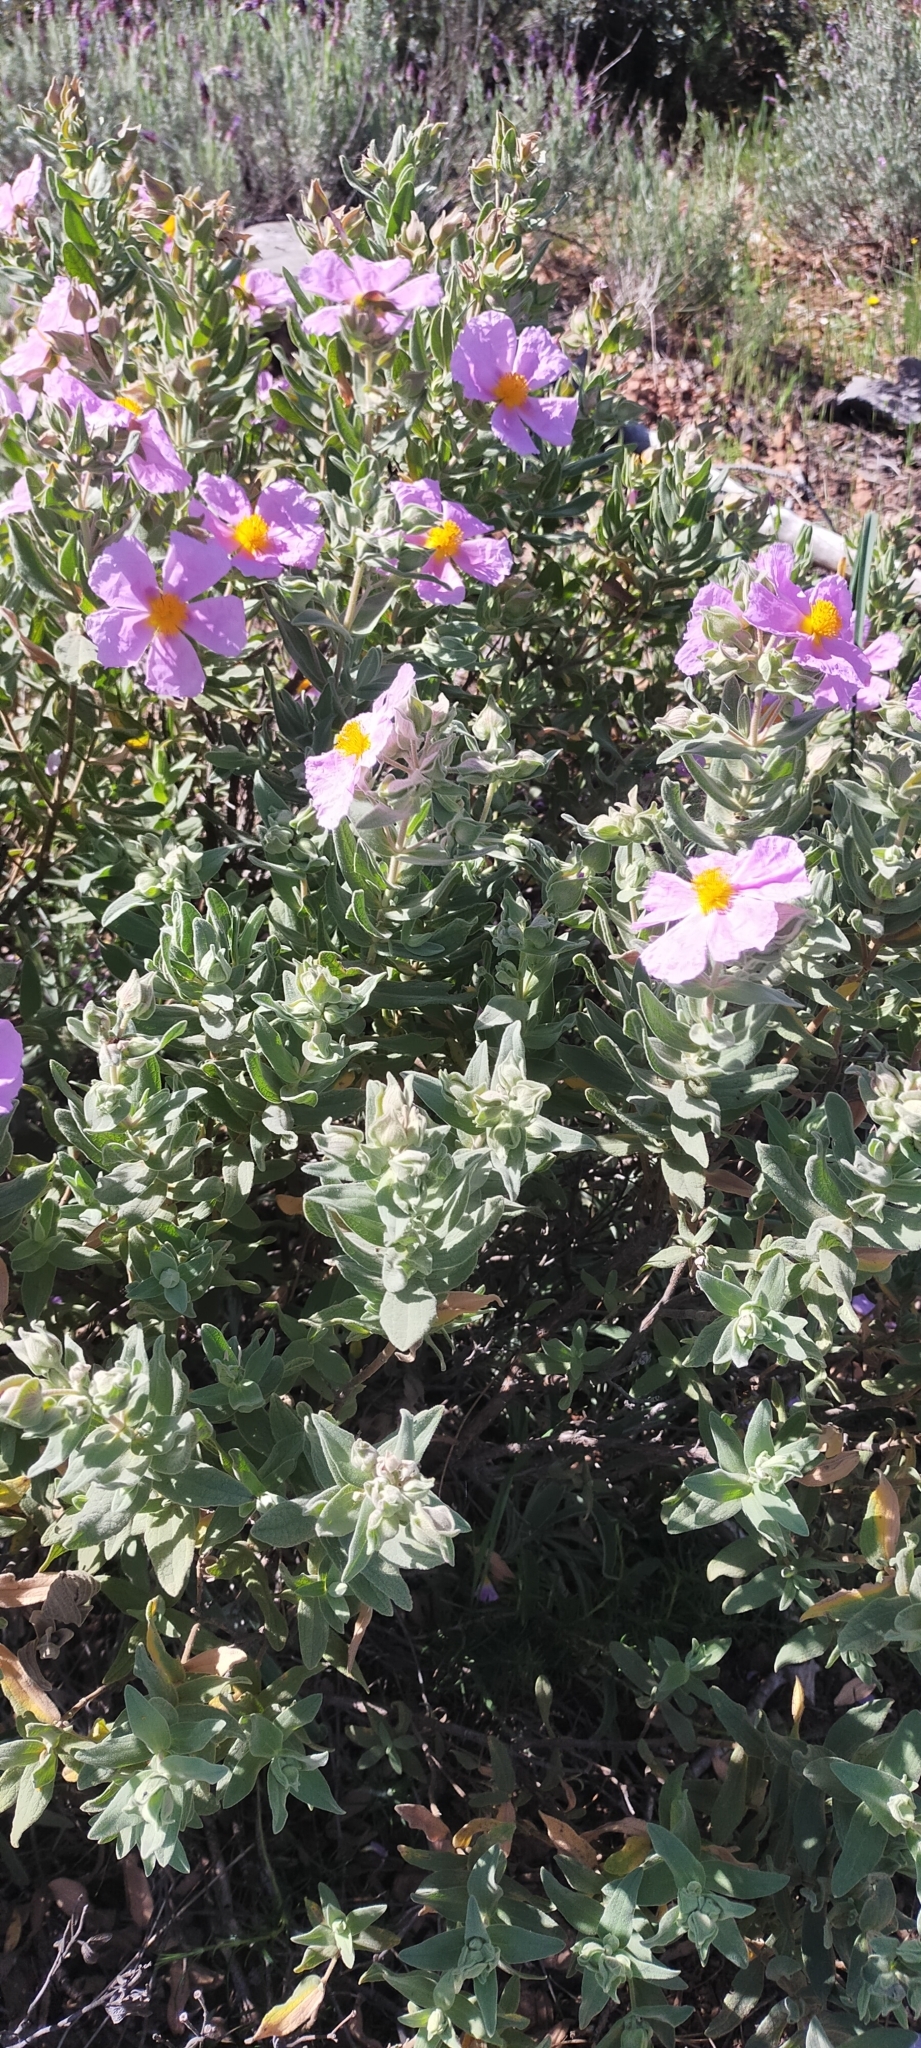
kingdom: Plantae
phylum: Tracheophyta
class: Magnoliopsida
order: Malvales
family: Cistaceae
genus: Cistus
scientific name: Cistus albidus
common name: White-leaf rock-rose
